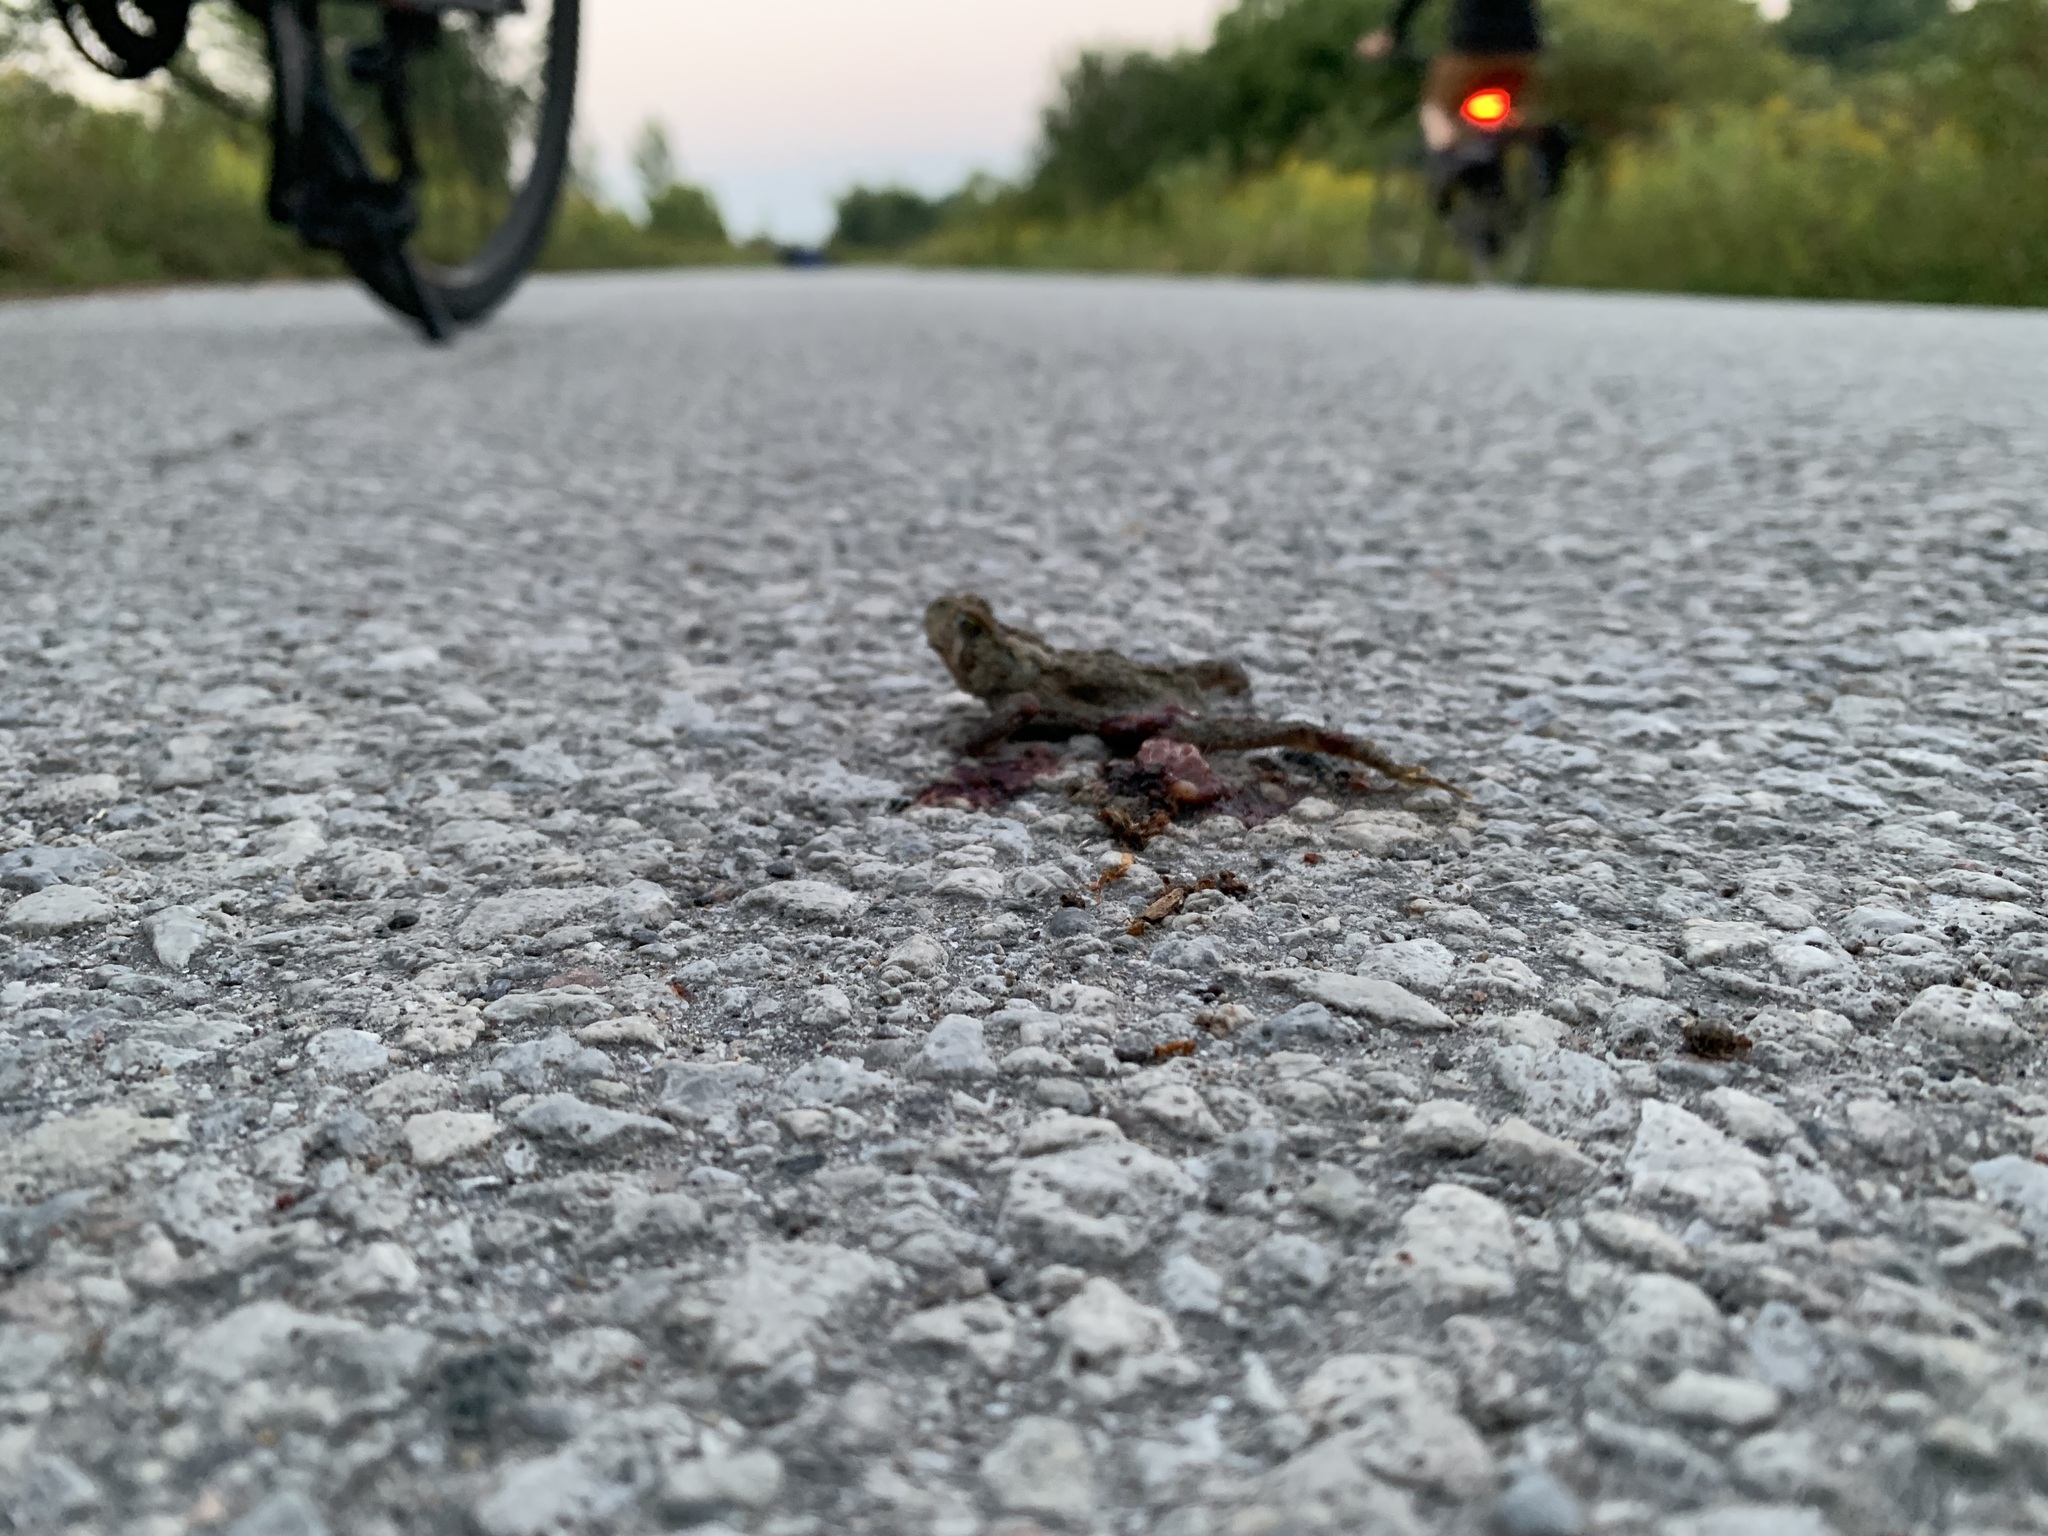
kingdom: Animalia
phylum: Chordata
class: Amphibia
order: Anura
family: Bufonidae
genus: Anaxyrus
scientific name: Anaxyrus americanus
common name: American toad
